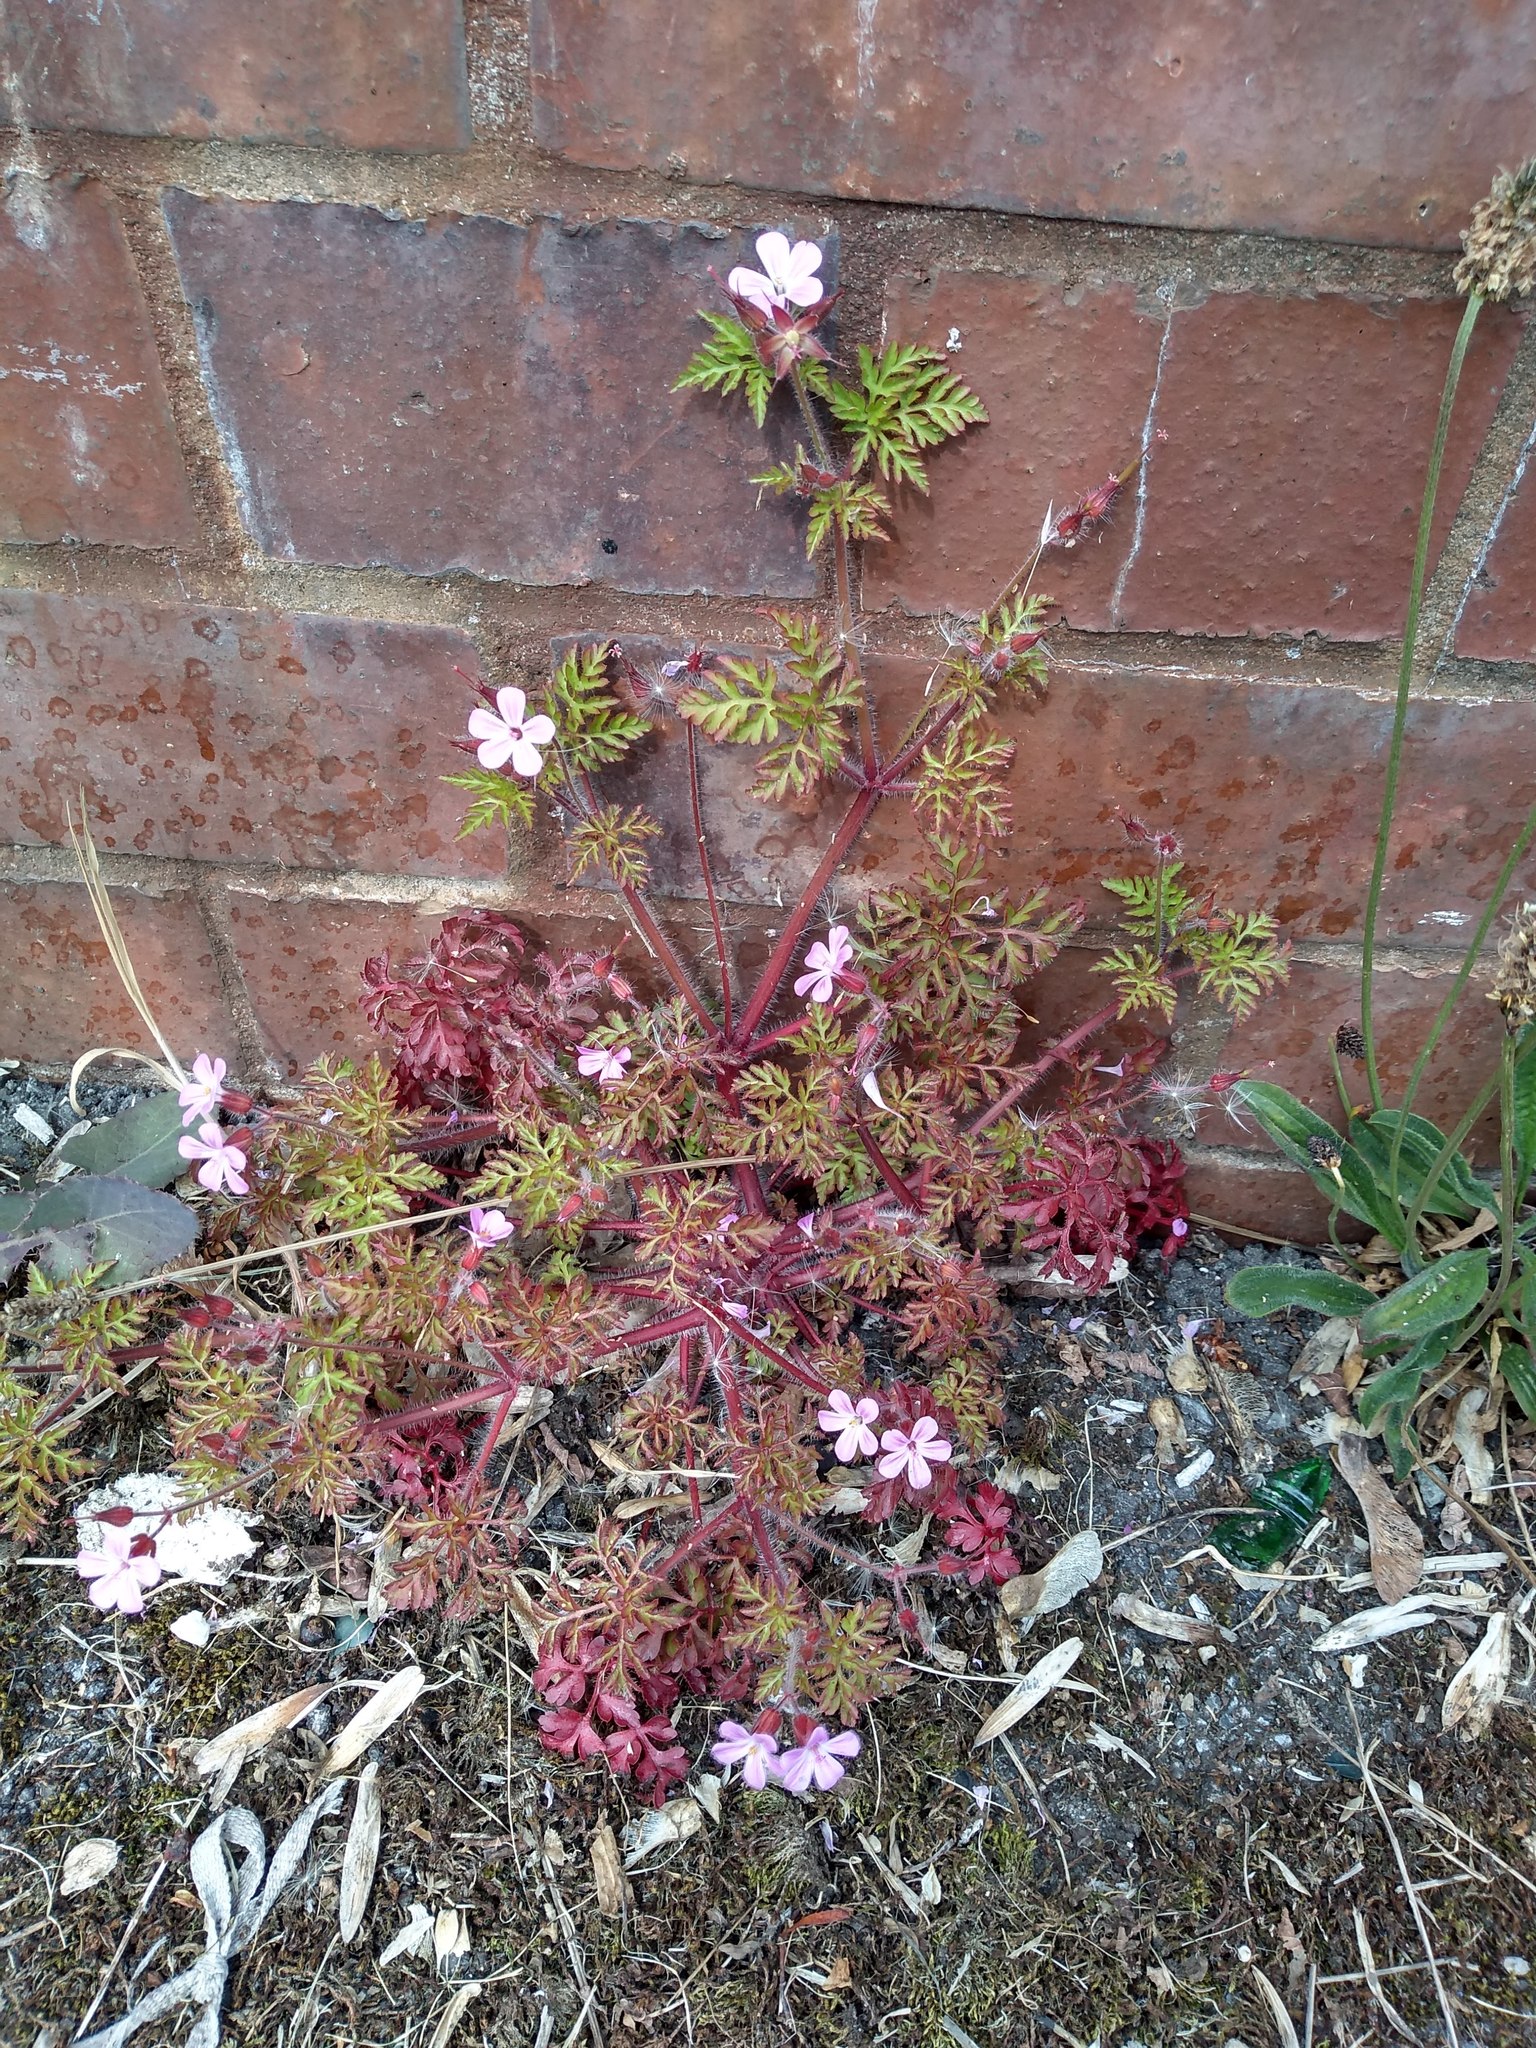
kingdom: Plantae
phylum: Tracheophyta
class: Magnoliopsida
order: Geraniales
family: Geraniaceae
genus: Geranium
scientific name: Geranium robertianum
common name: Herb-robert
